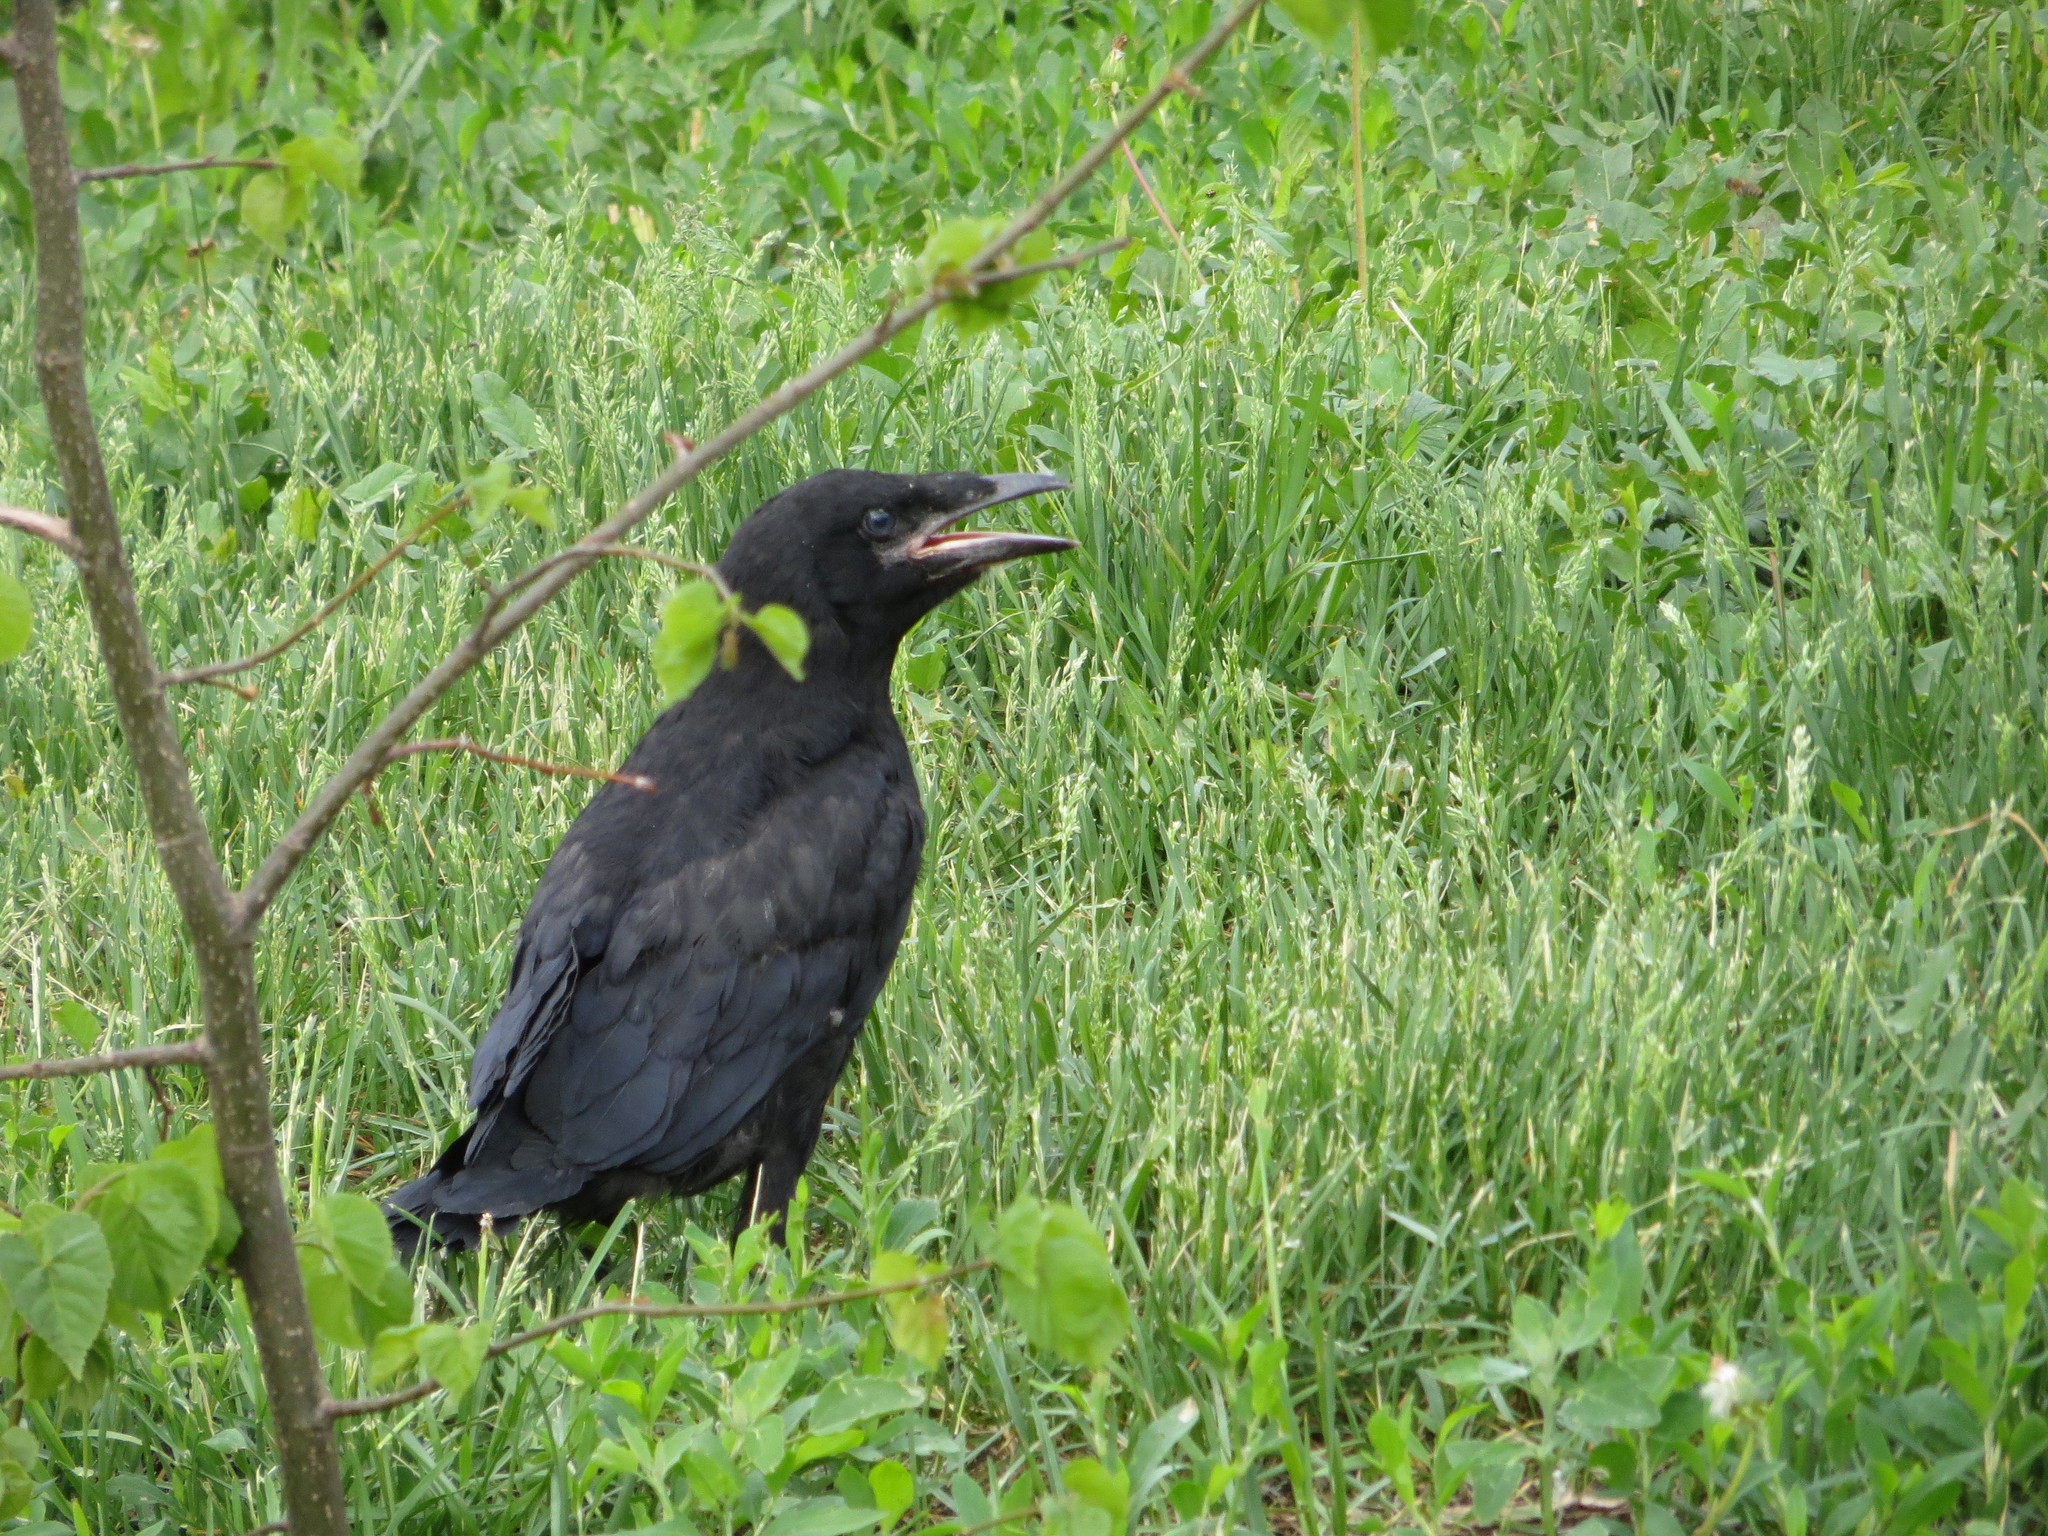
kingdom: Animalia
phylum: Chordata
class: Aves
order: Passeriformes
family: Corvidae
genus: Corvus
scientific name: Corvus frugilegus
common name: Rook
